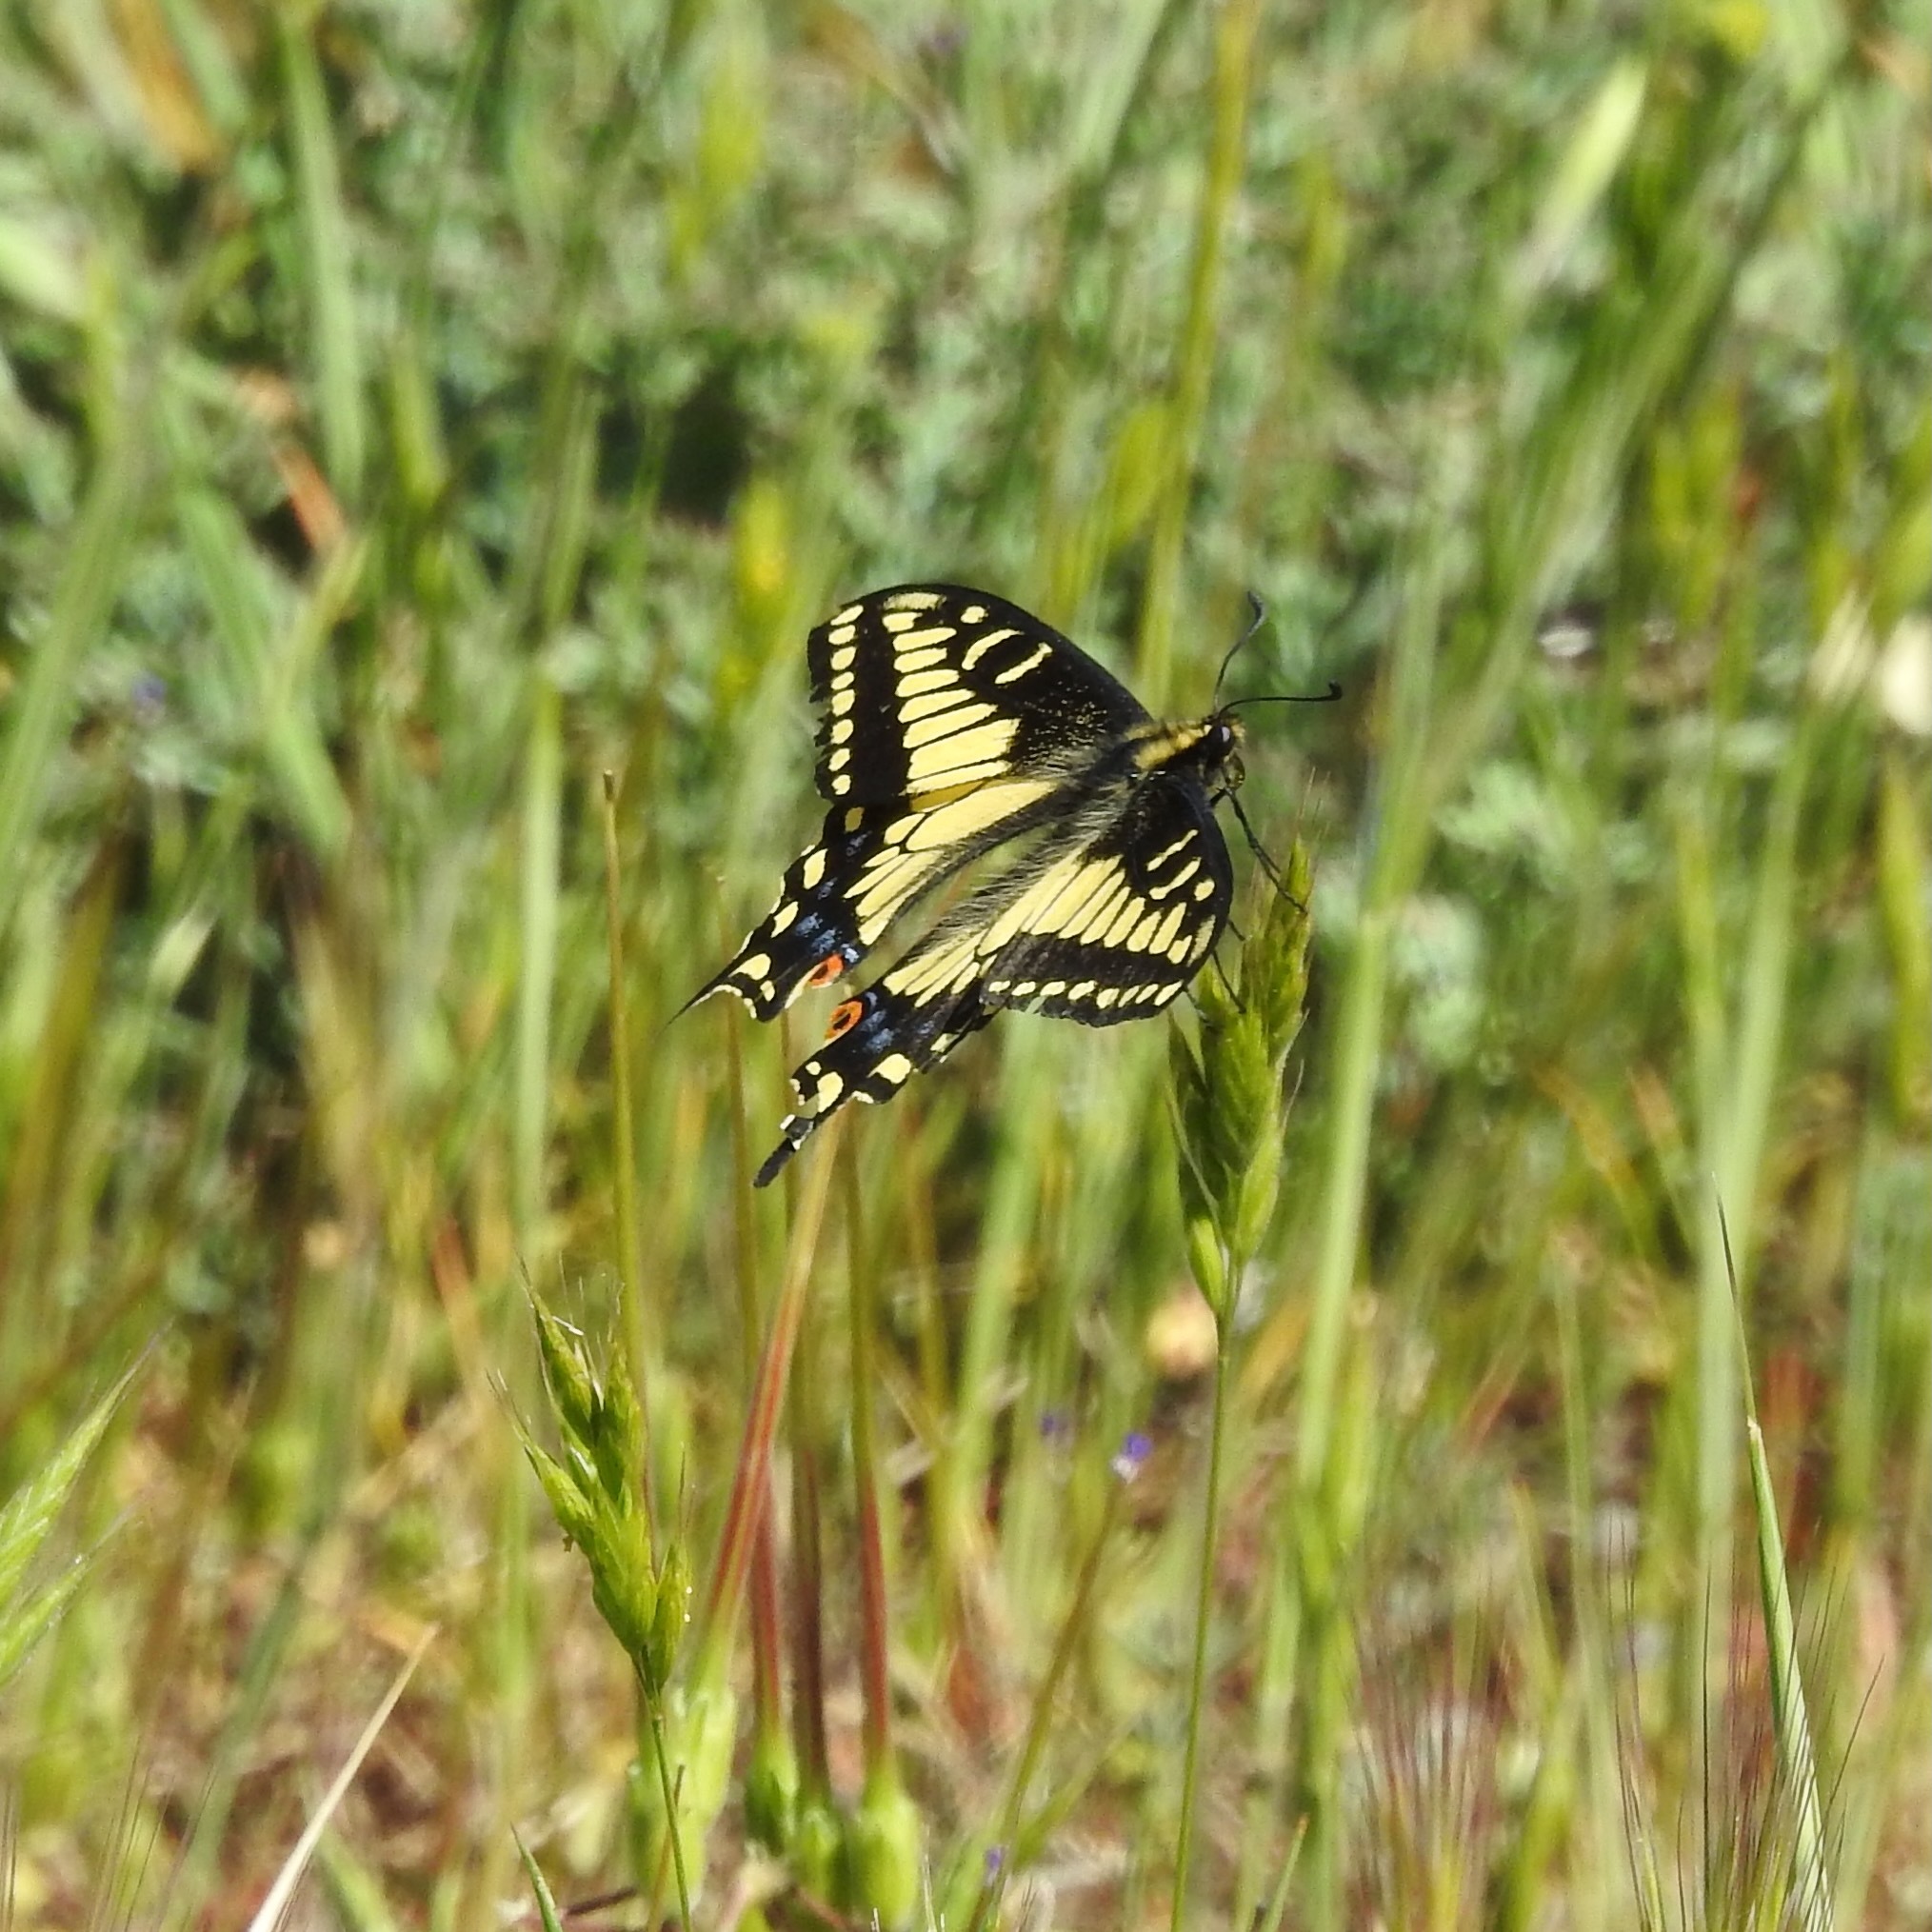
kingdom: Animalia
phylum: Arthropoda
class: Insecta
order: Lepidoptera
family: Papilionidae
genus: Papilio
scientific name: Papilio zelicaon
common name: Anise swallowtail
